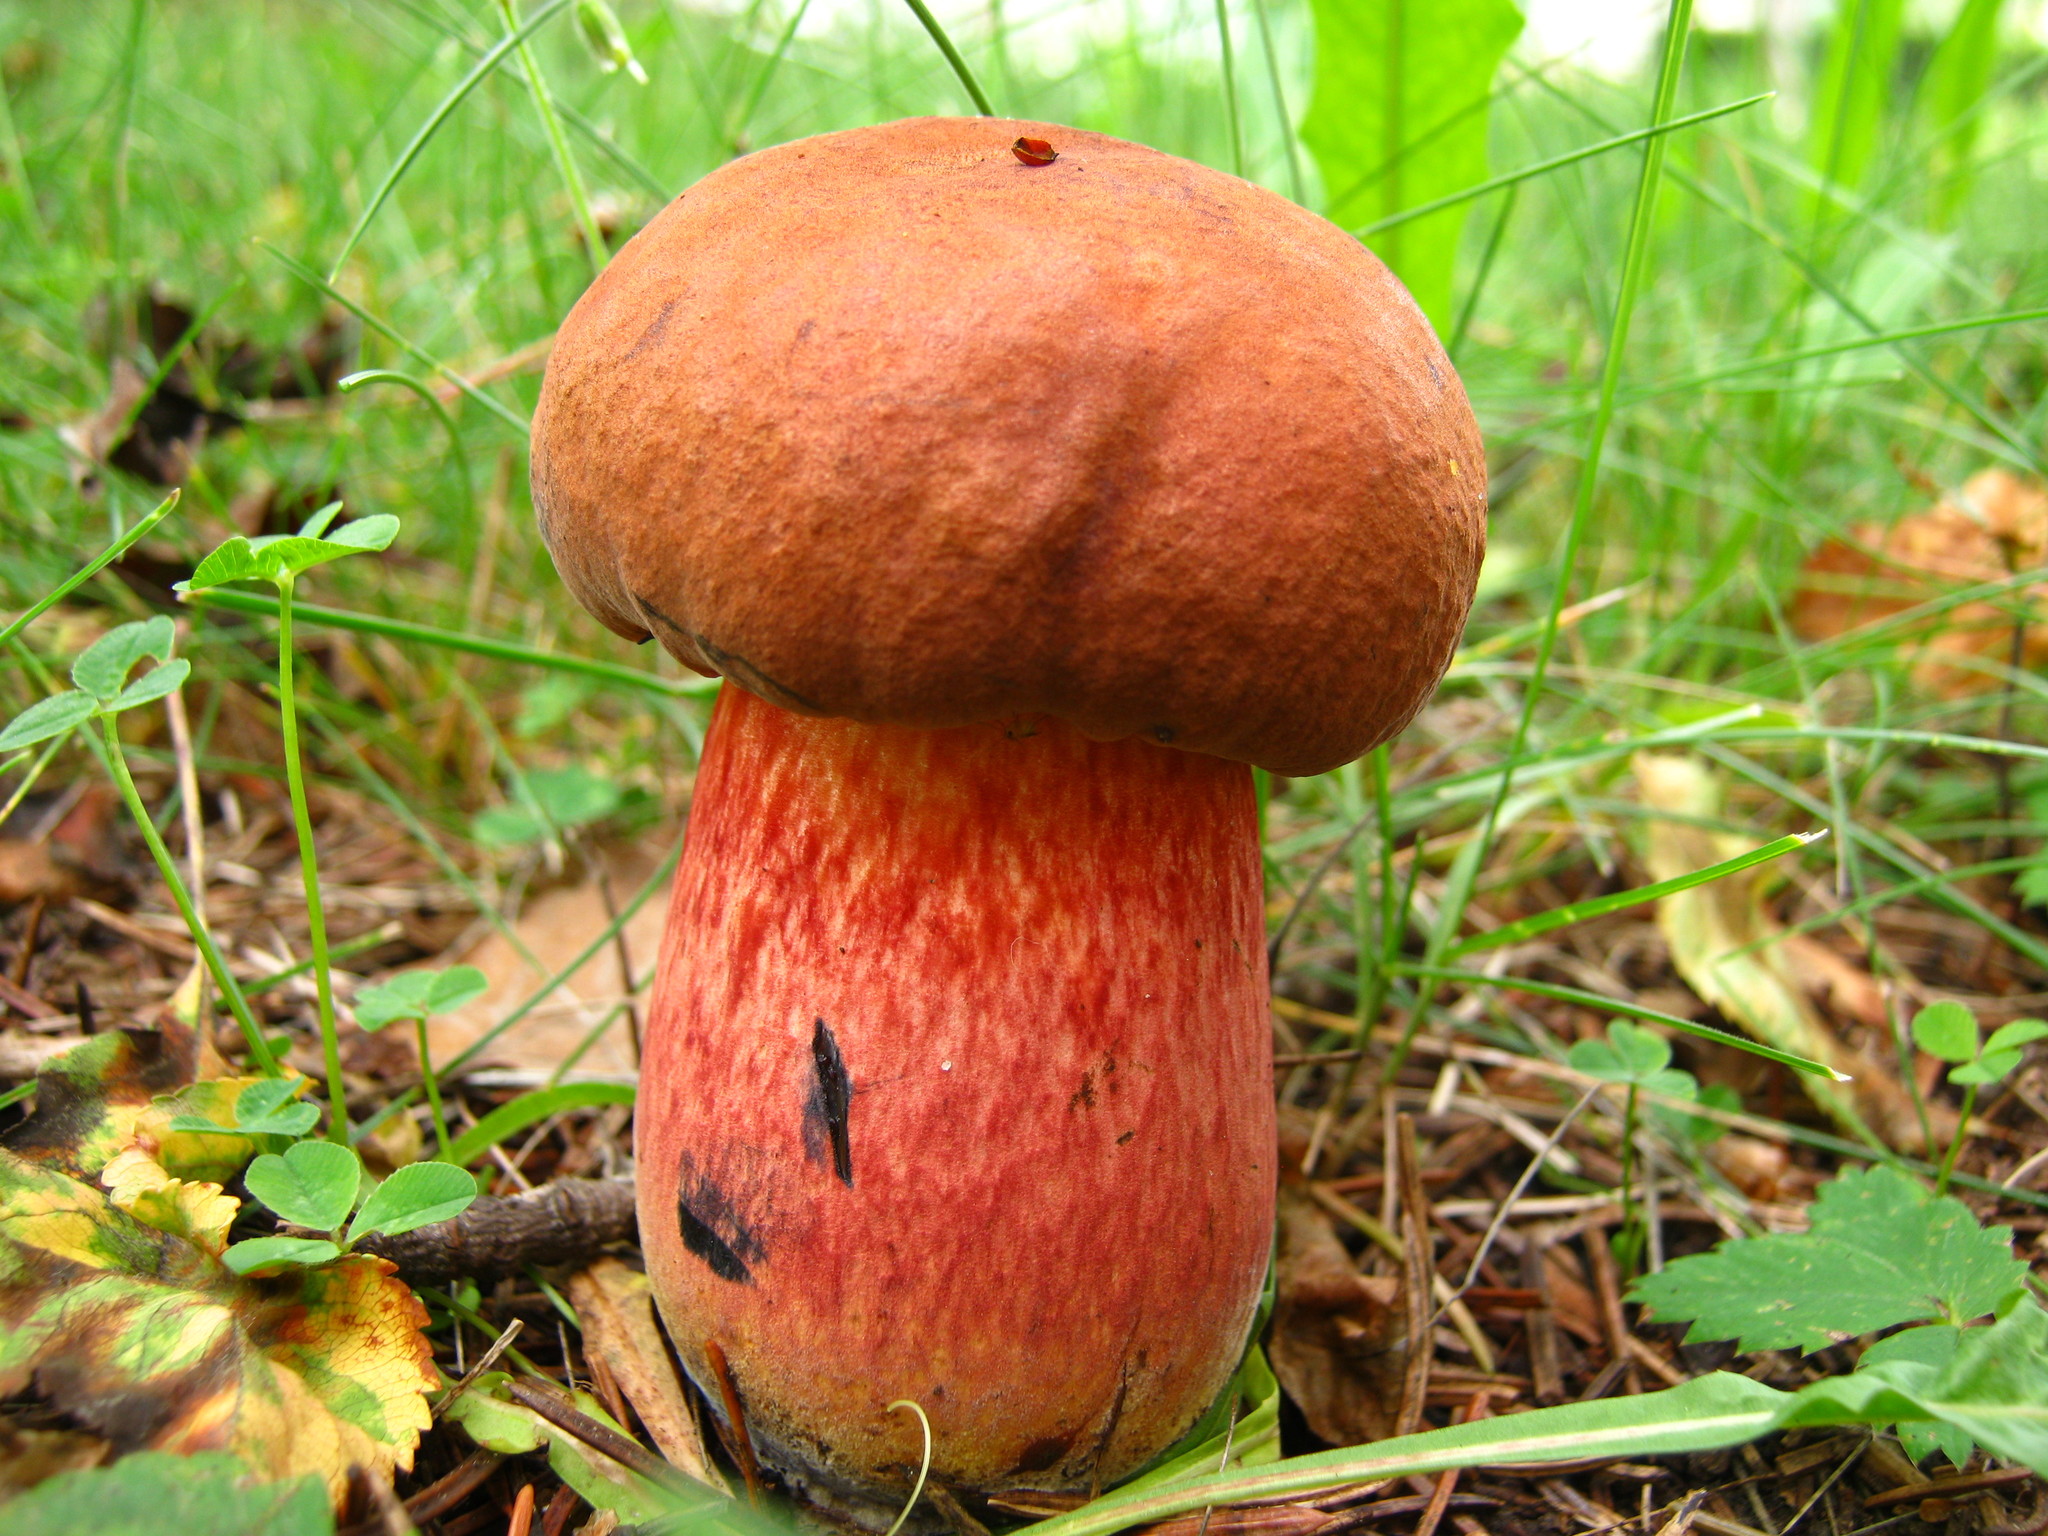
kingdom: Fungi
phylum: Basidiomycota
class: Agaricomycetes
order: Boletales
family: Boletaceae
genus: Boletus
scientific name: Boletus subvelutipes
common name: Red-mouth bolete
